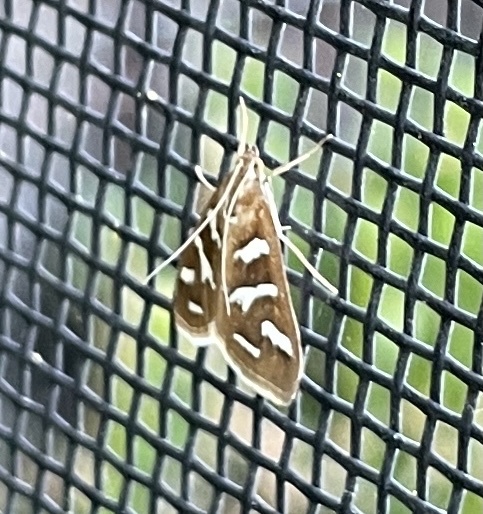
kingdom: Animalia
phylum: Arthropoda
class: Insecta
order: Lepidoptera
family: Crambidae
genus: Diastictis
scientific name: Diastictis fracturalis
